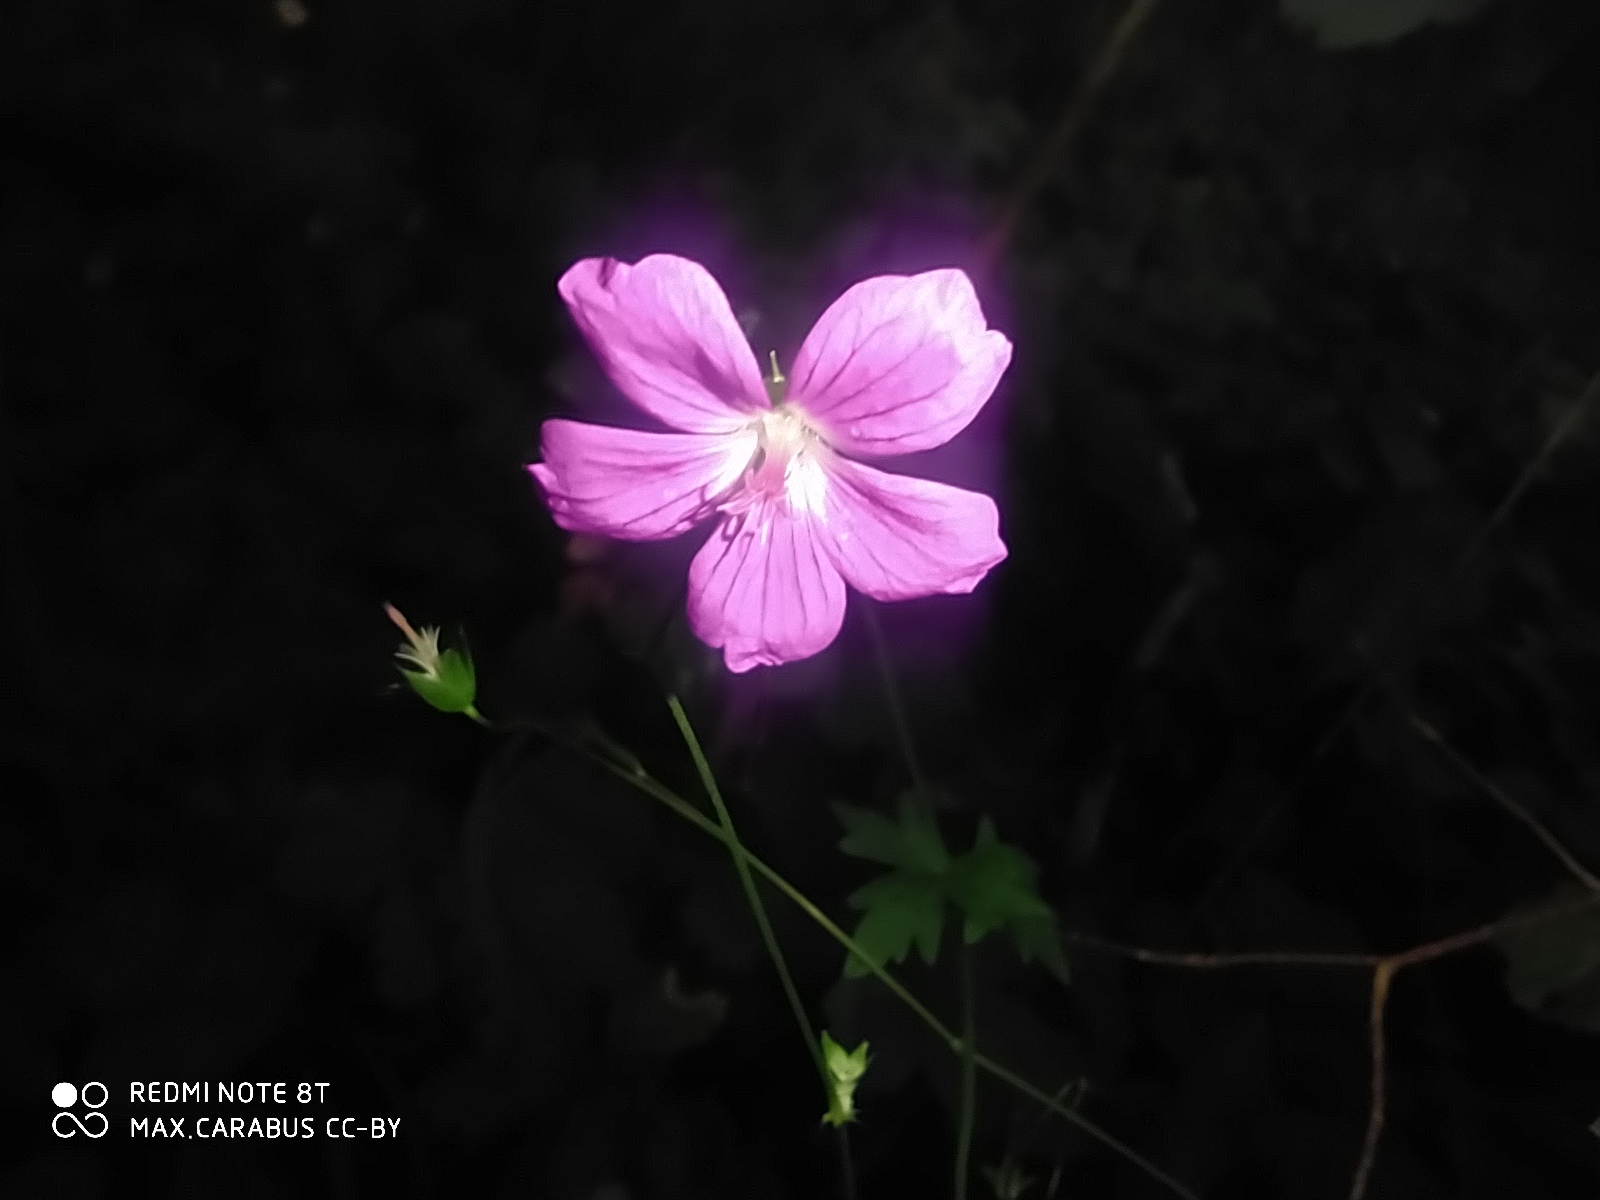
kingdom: Plantae
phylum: Tracheophyta
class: Magnoliopsida
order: Geraniales
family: Geraniaceae
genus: Geranium
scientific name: Geranium palustre
